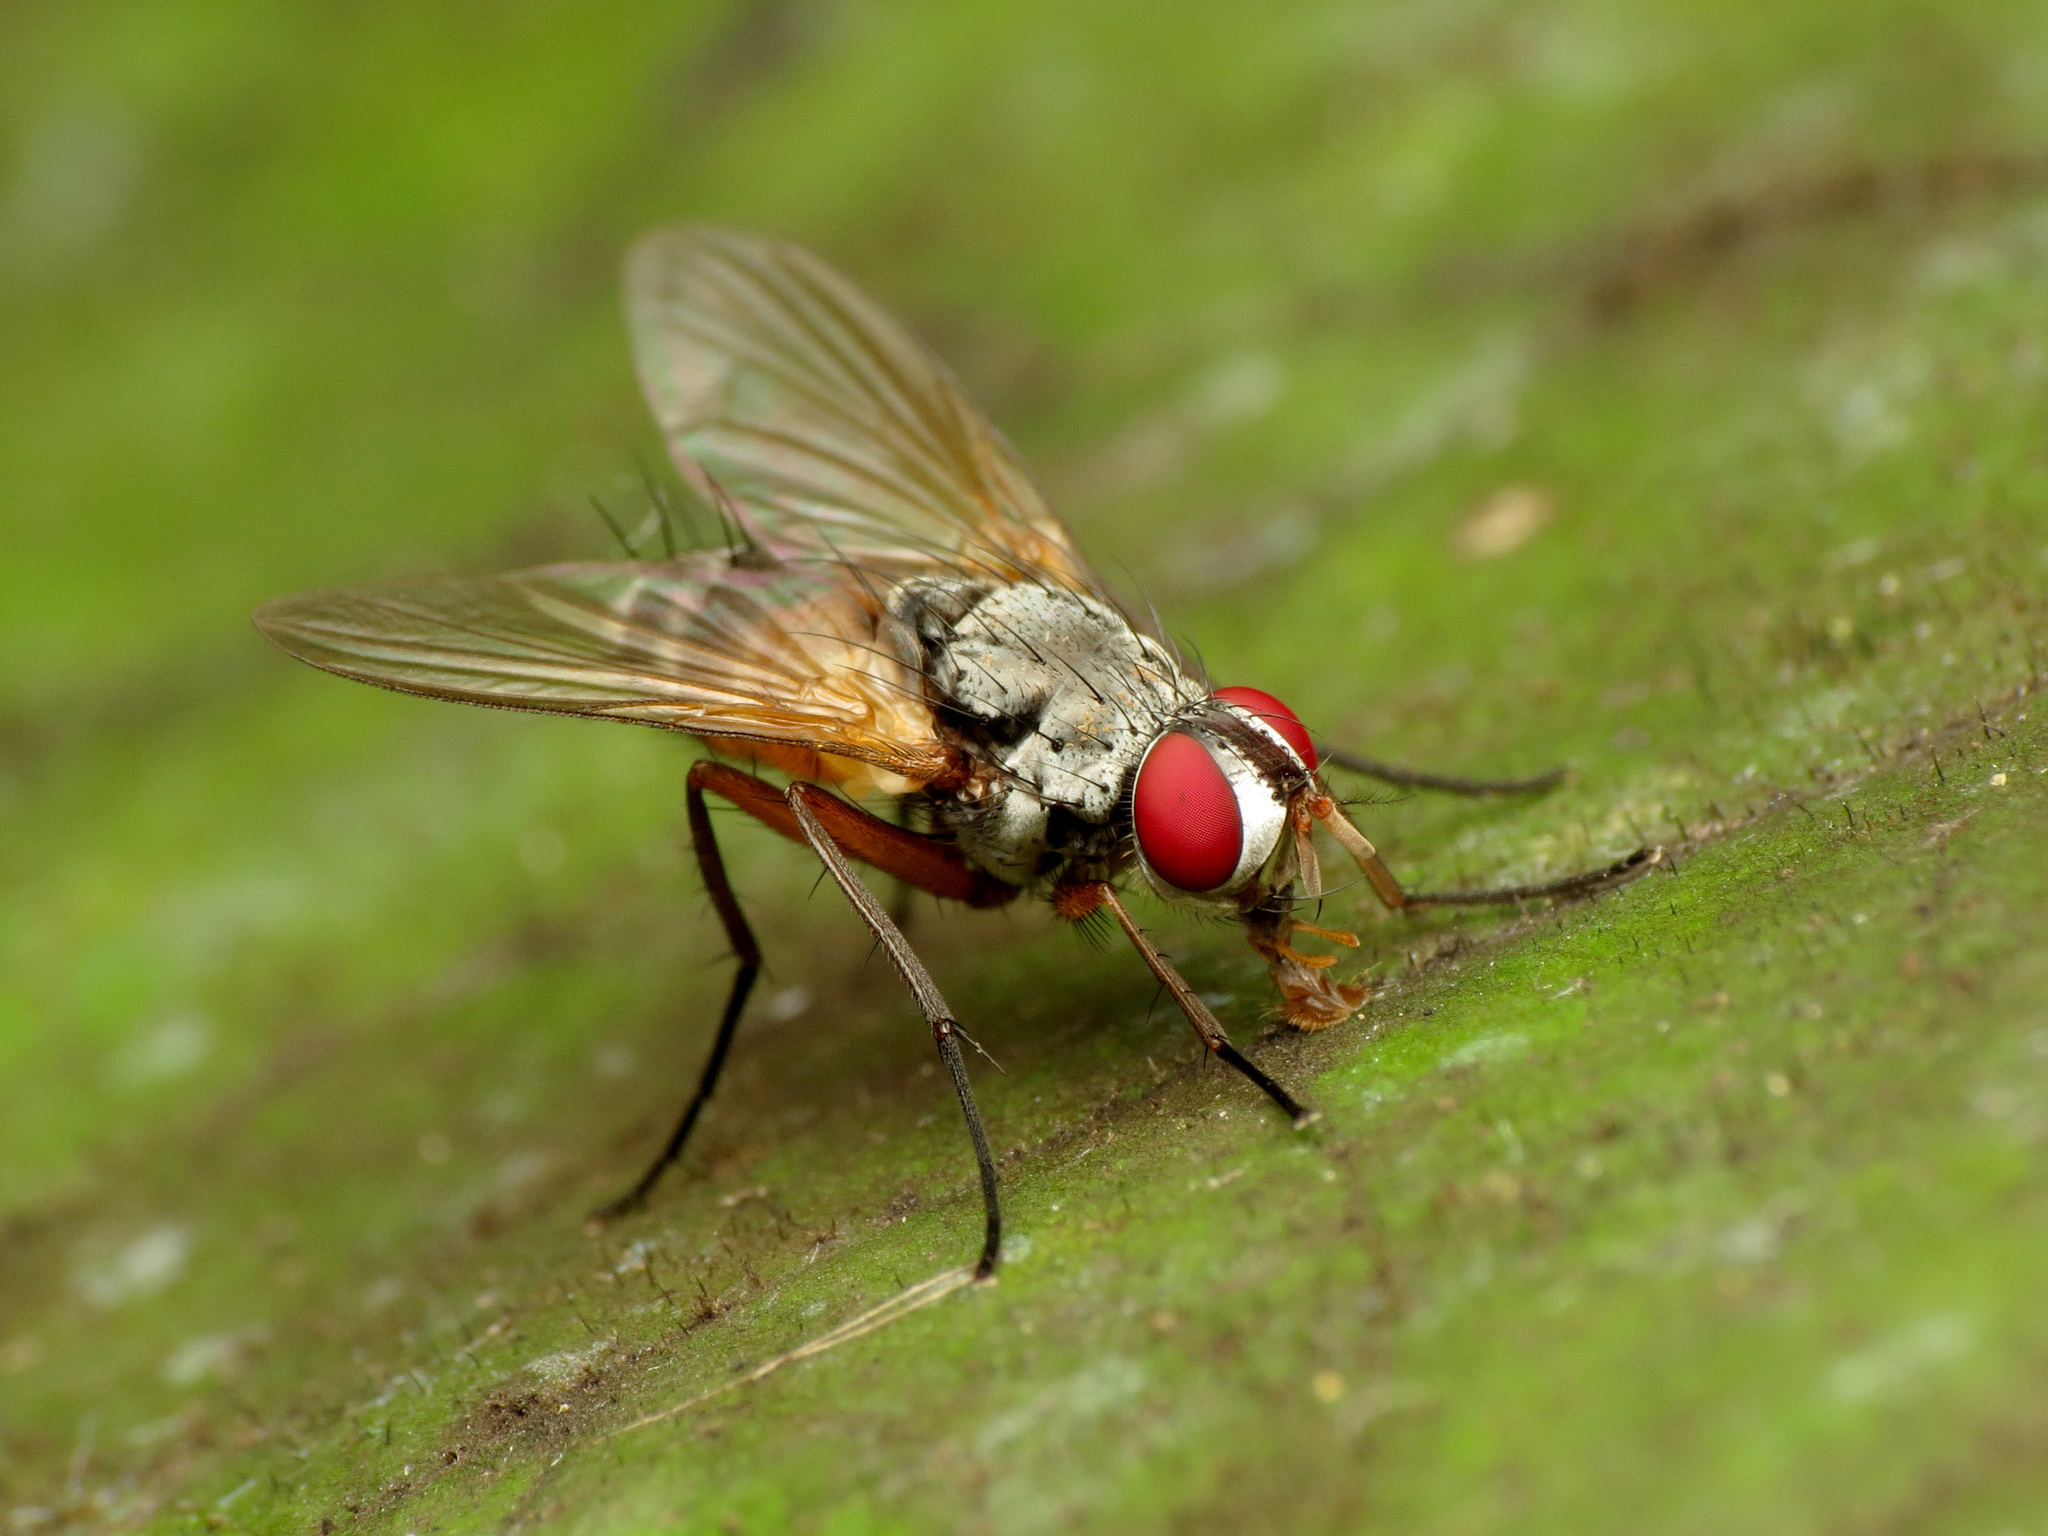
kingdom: Animalia
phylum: Arthropoda
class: Insecta
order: Diptera
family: Tachinidae
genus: Cholomyia
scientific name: Cholomyia inaequipes
